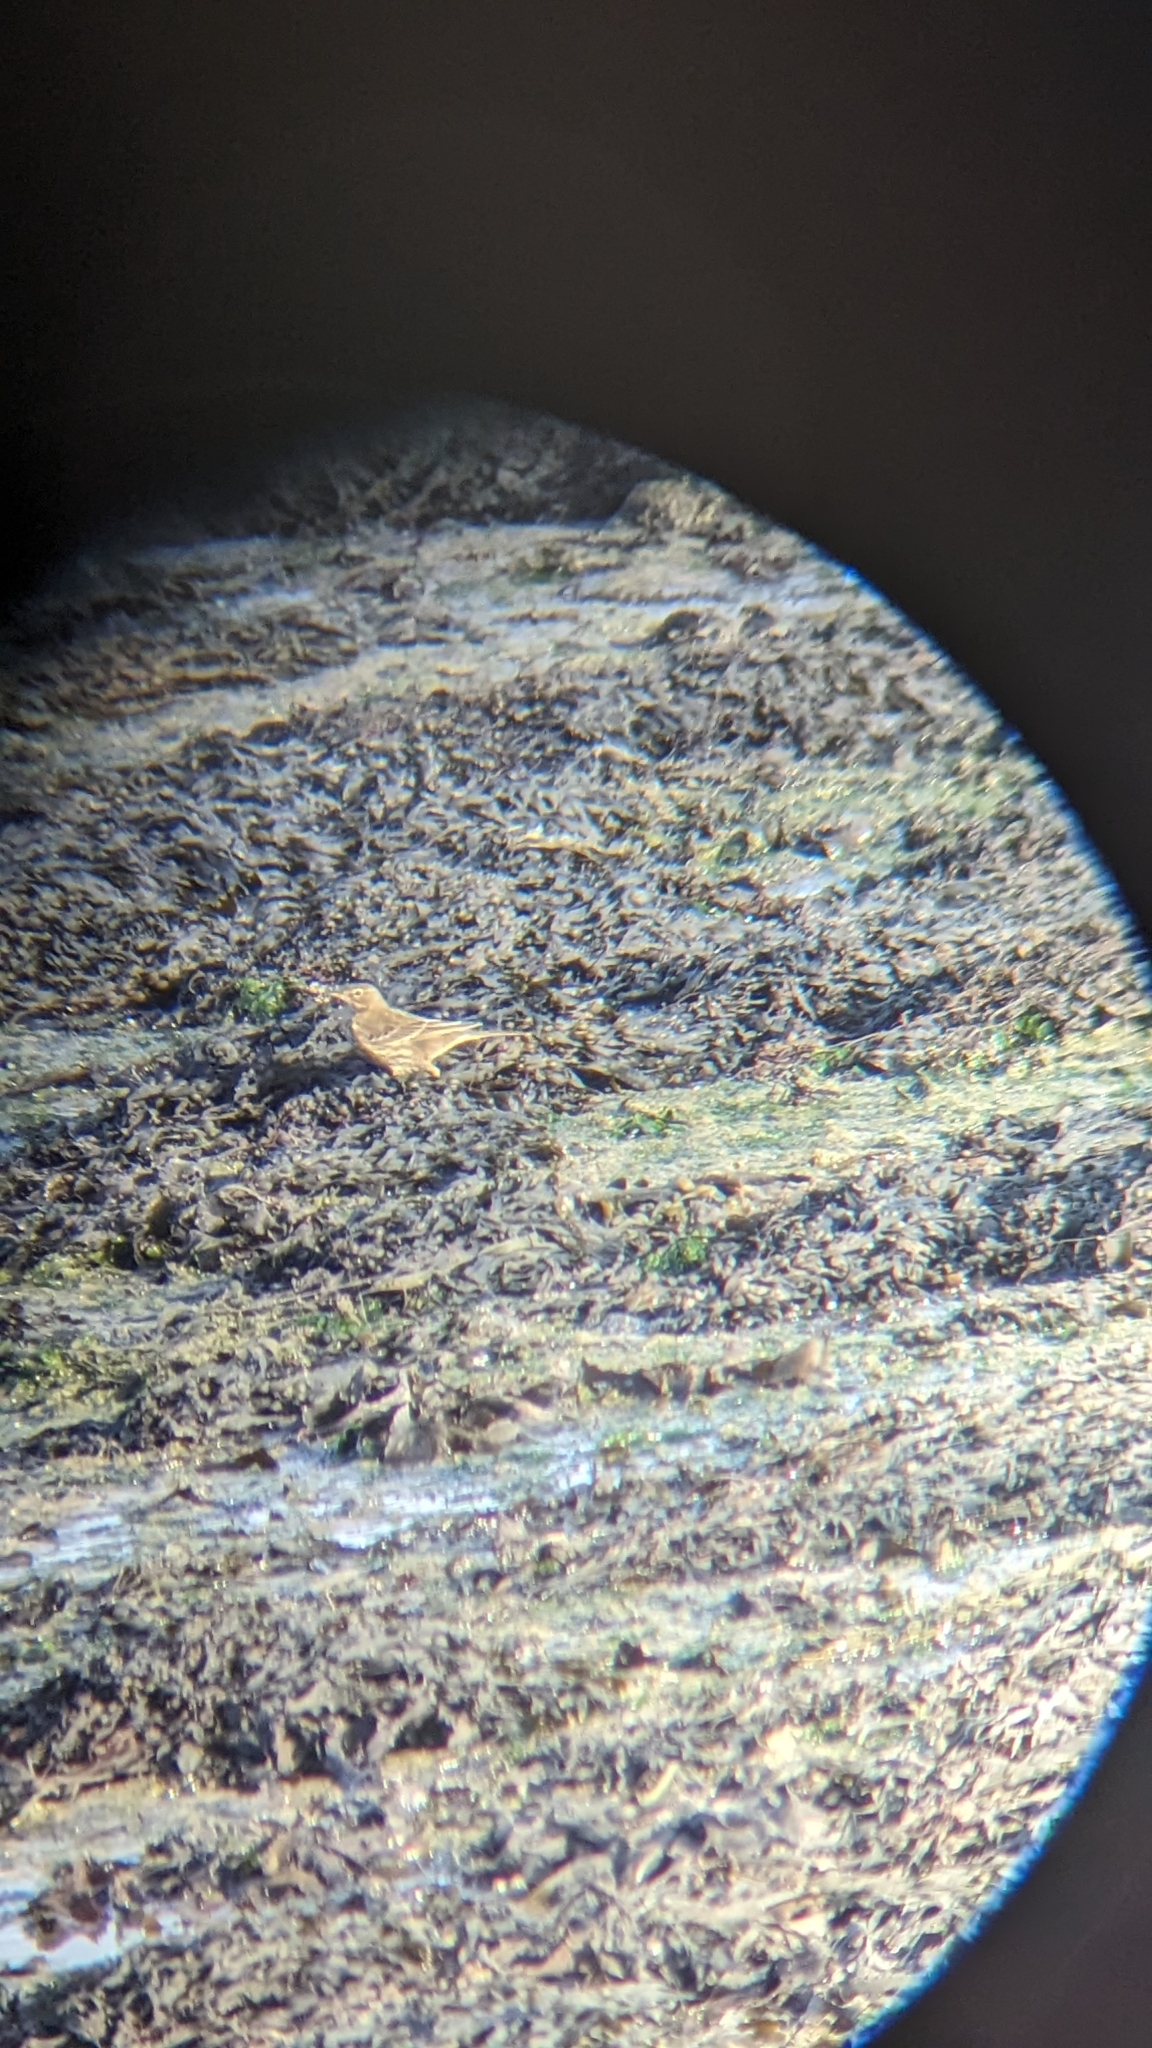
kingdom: Animalia
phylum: Chordata
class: Aves
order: Passeriformes
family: Motacillidae
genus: Anthus
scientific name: Anthus petrosus
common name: Eurasian rock pipit
